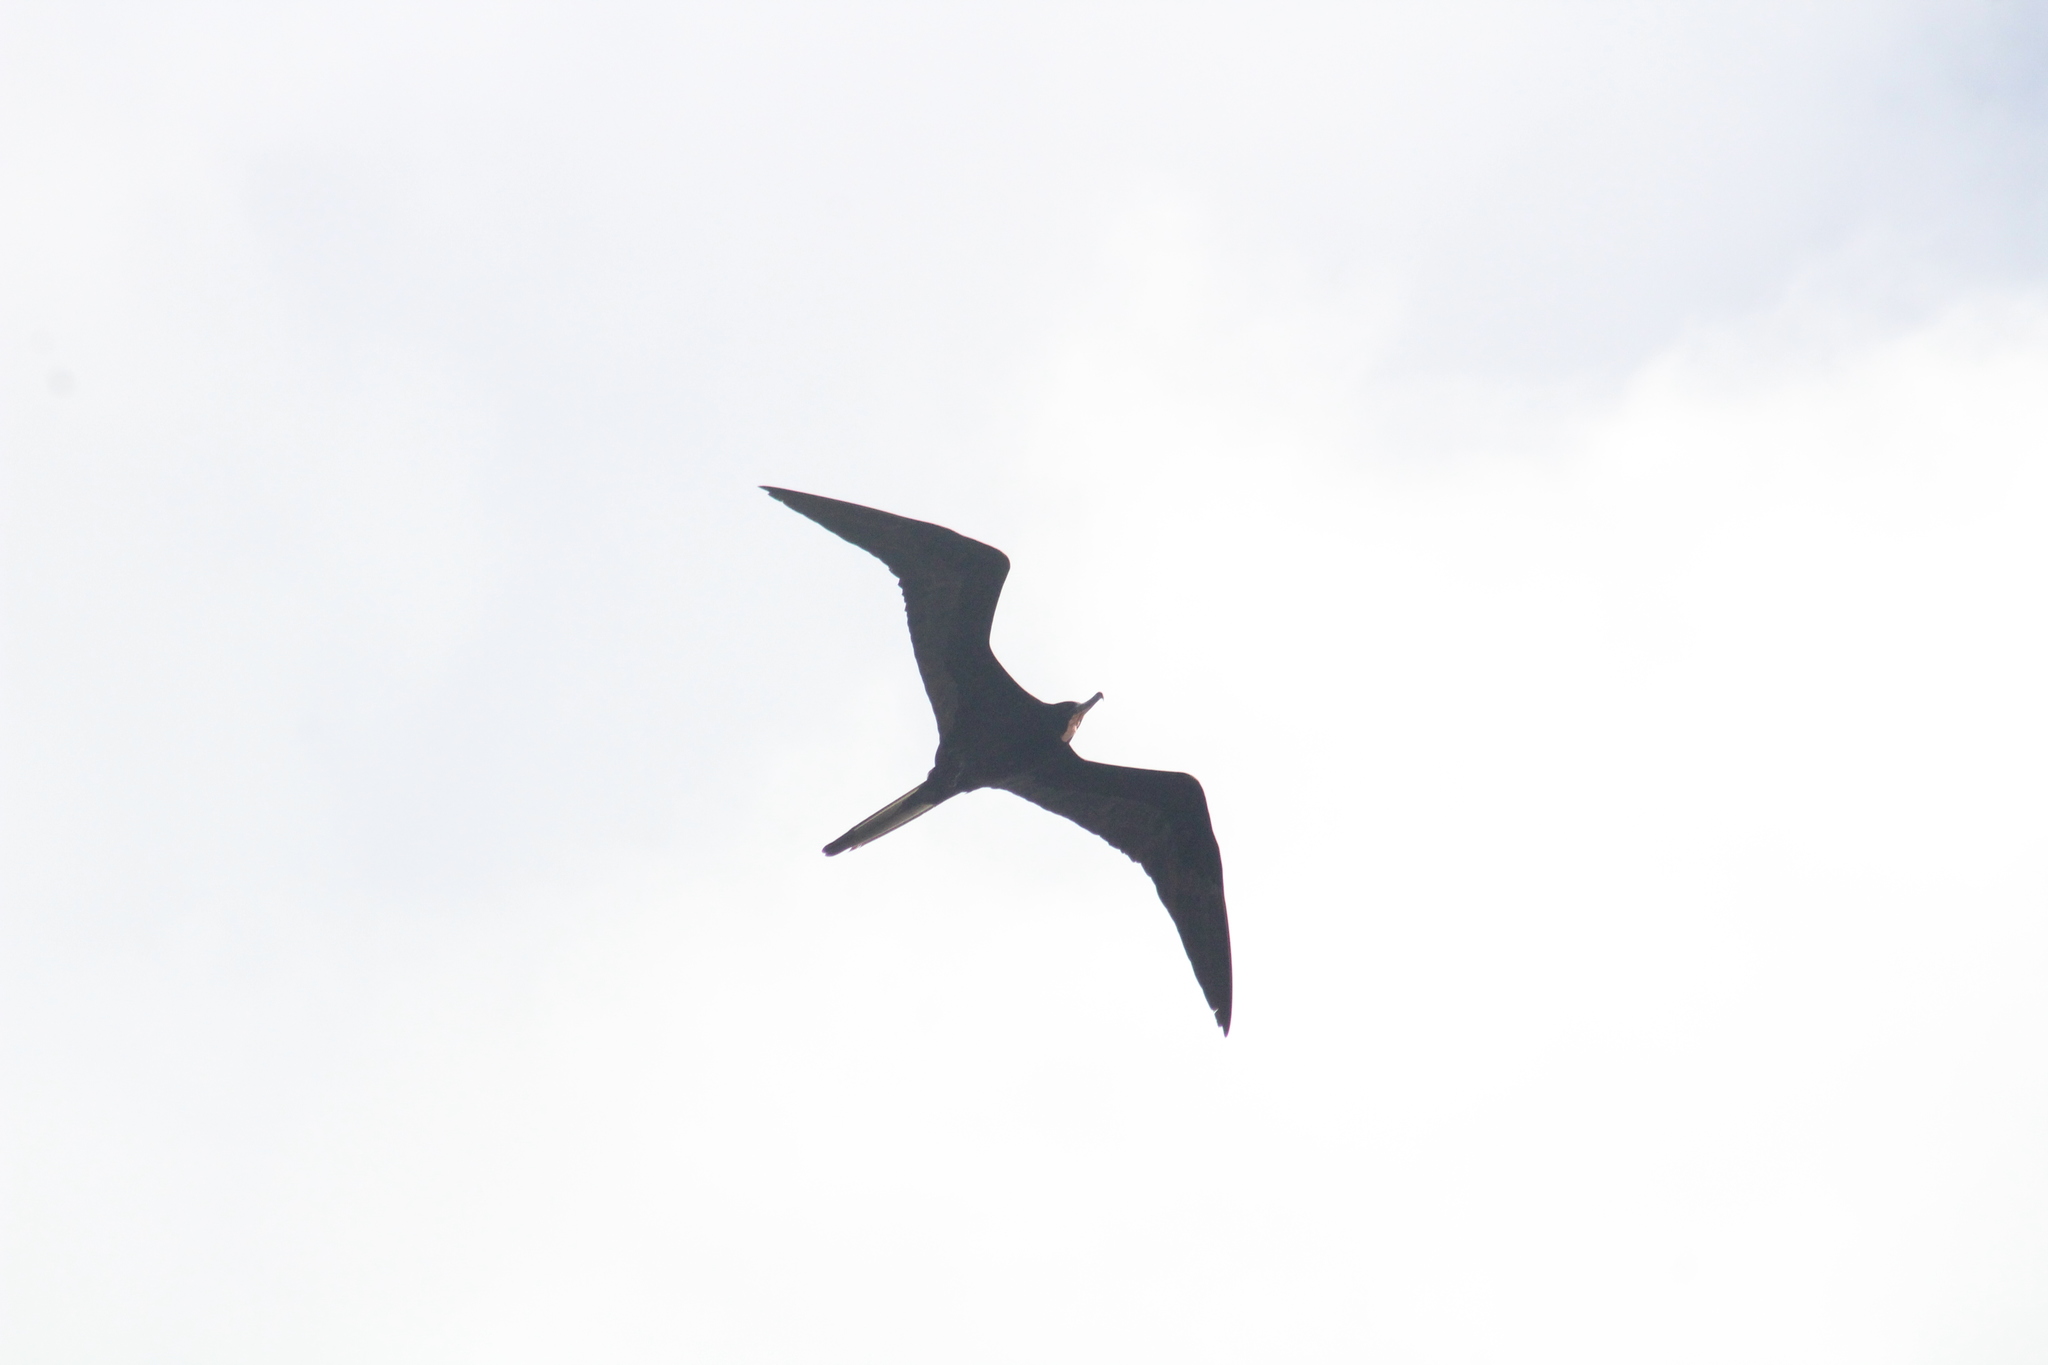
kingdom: Animalia
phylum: Chordata
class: Aves
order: Suliformes
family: Fregatidae
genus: Fregata
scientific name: Fregata magnificens
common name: Magnificent frigatebird
